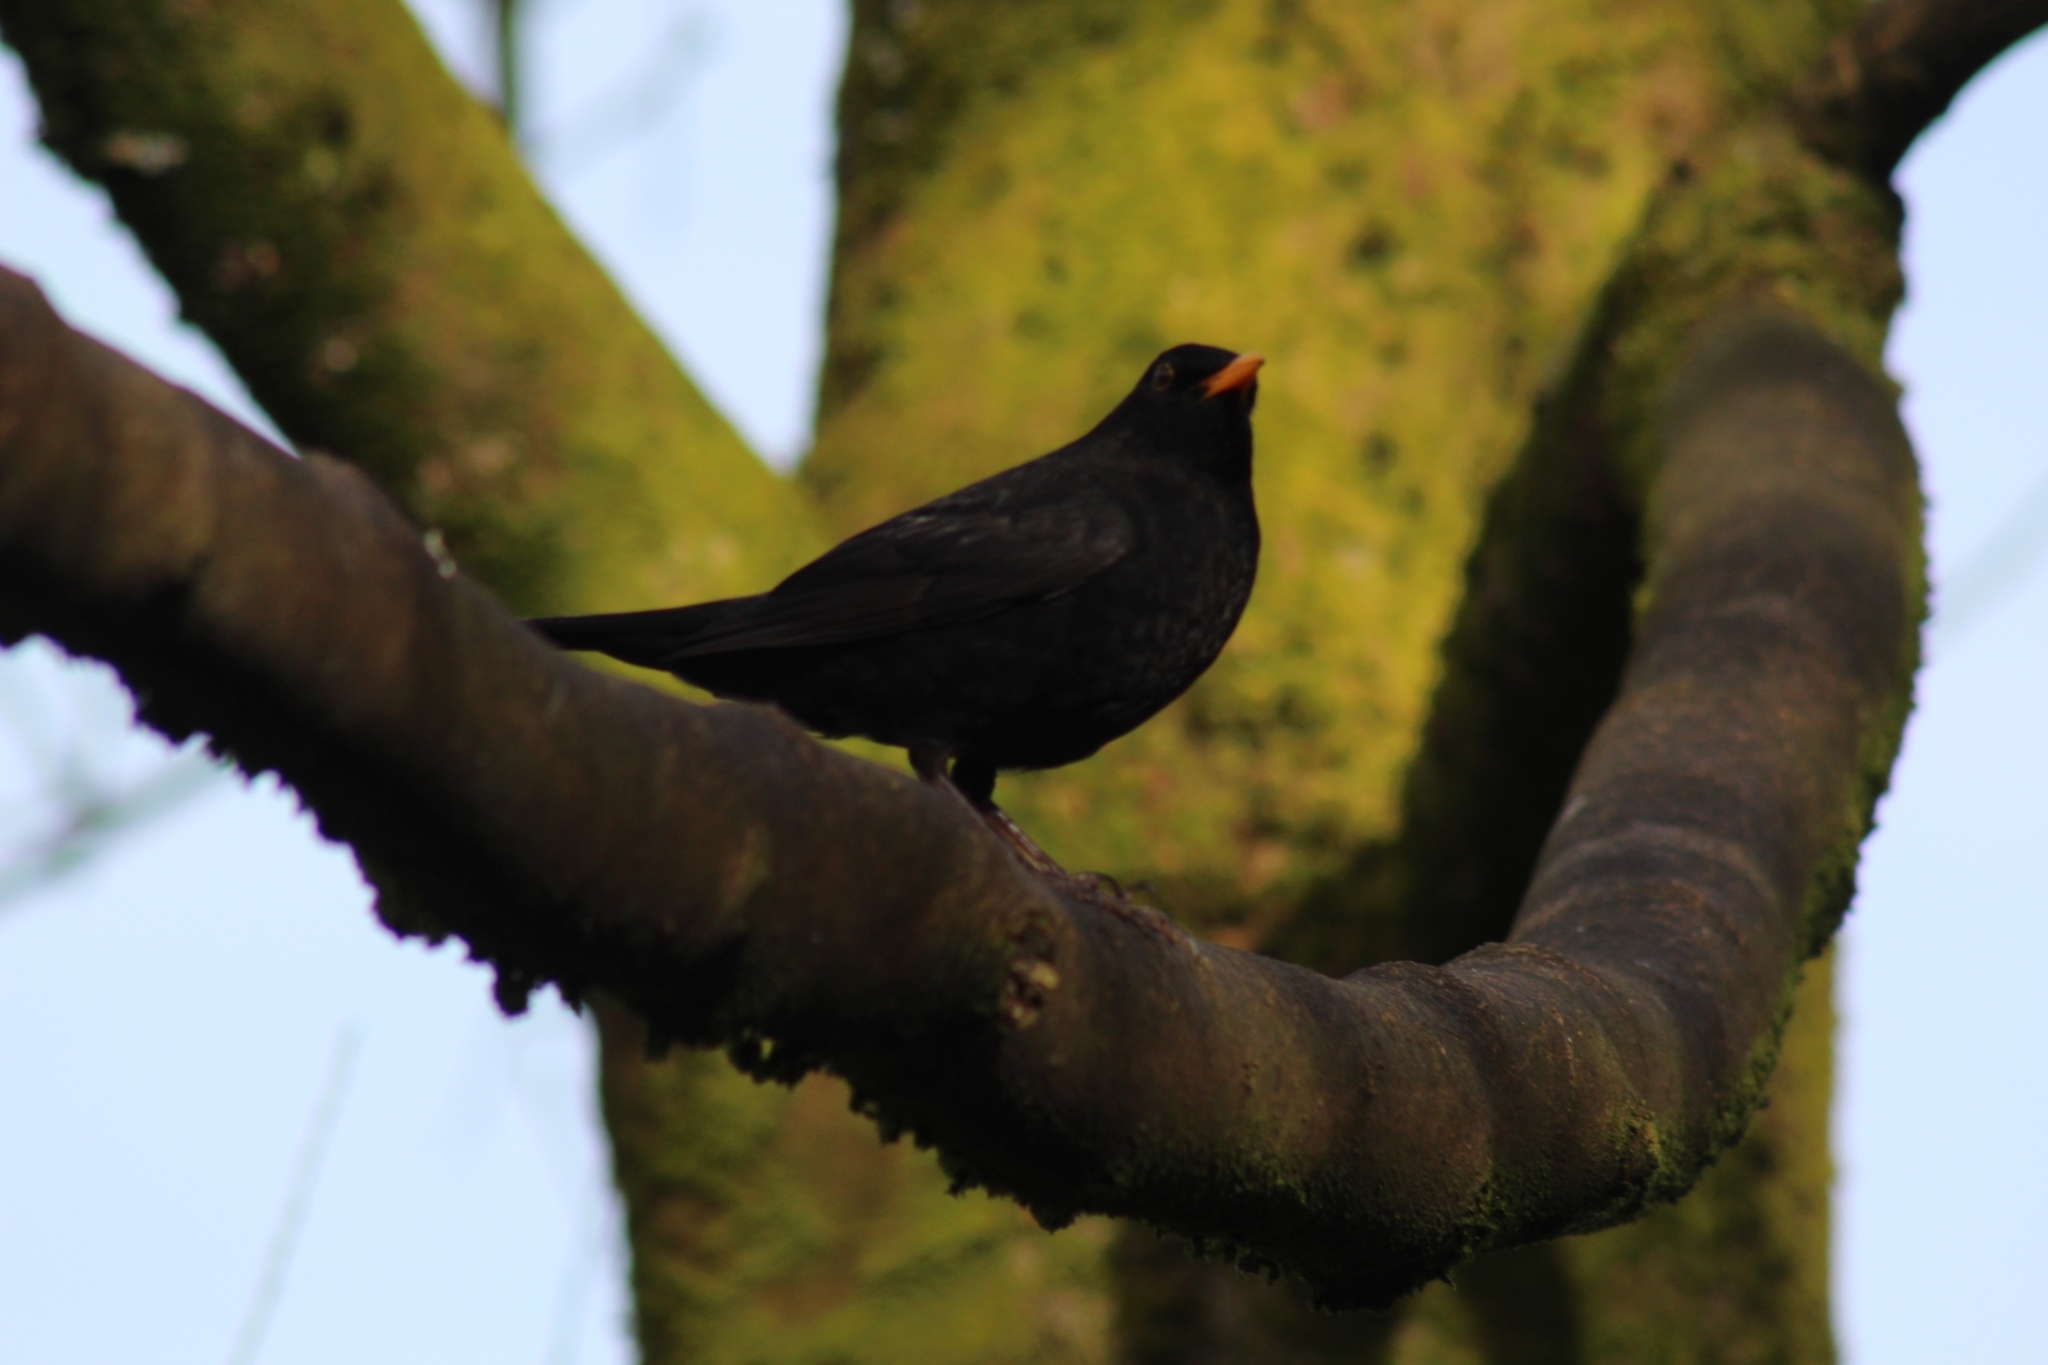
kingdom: Animalia
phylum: Chordata
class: Aves
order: Passeriformes
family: Turdidae
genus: Turdus
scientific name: Turdus merula
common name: Common blackbird
